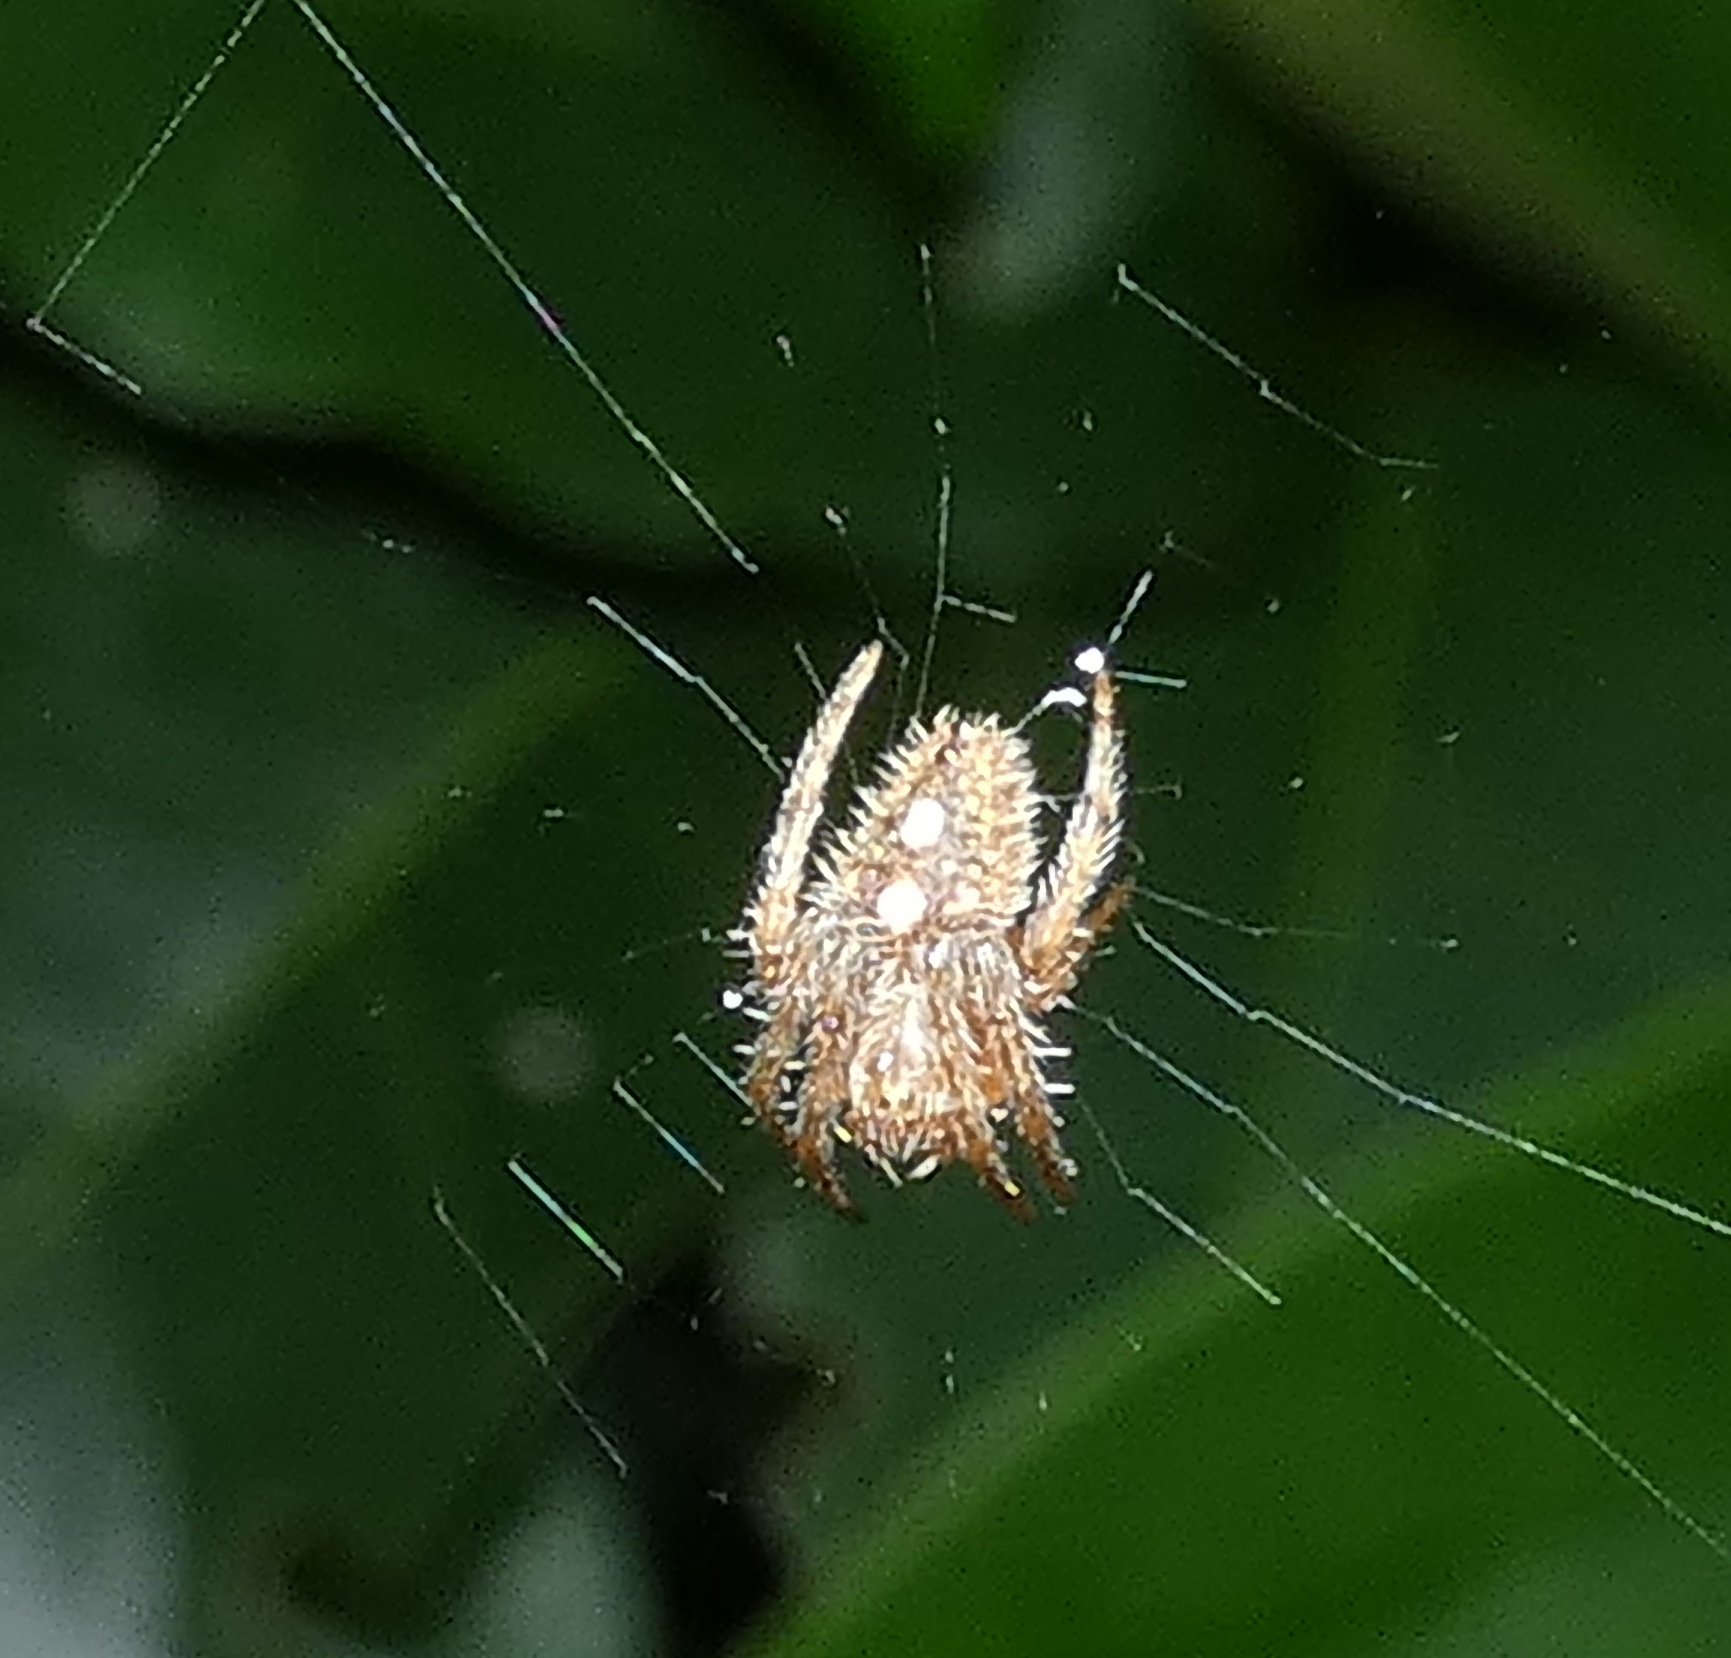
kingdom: Animalia
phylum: Arthropoda
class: Arachnida
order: Araneae
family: Araneidae
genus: Eriophora
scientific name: Eriophora edax
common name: Orb weavers
